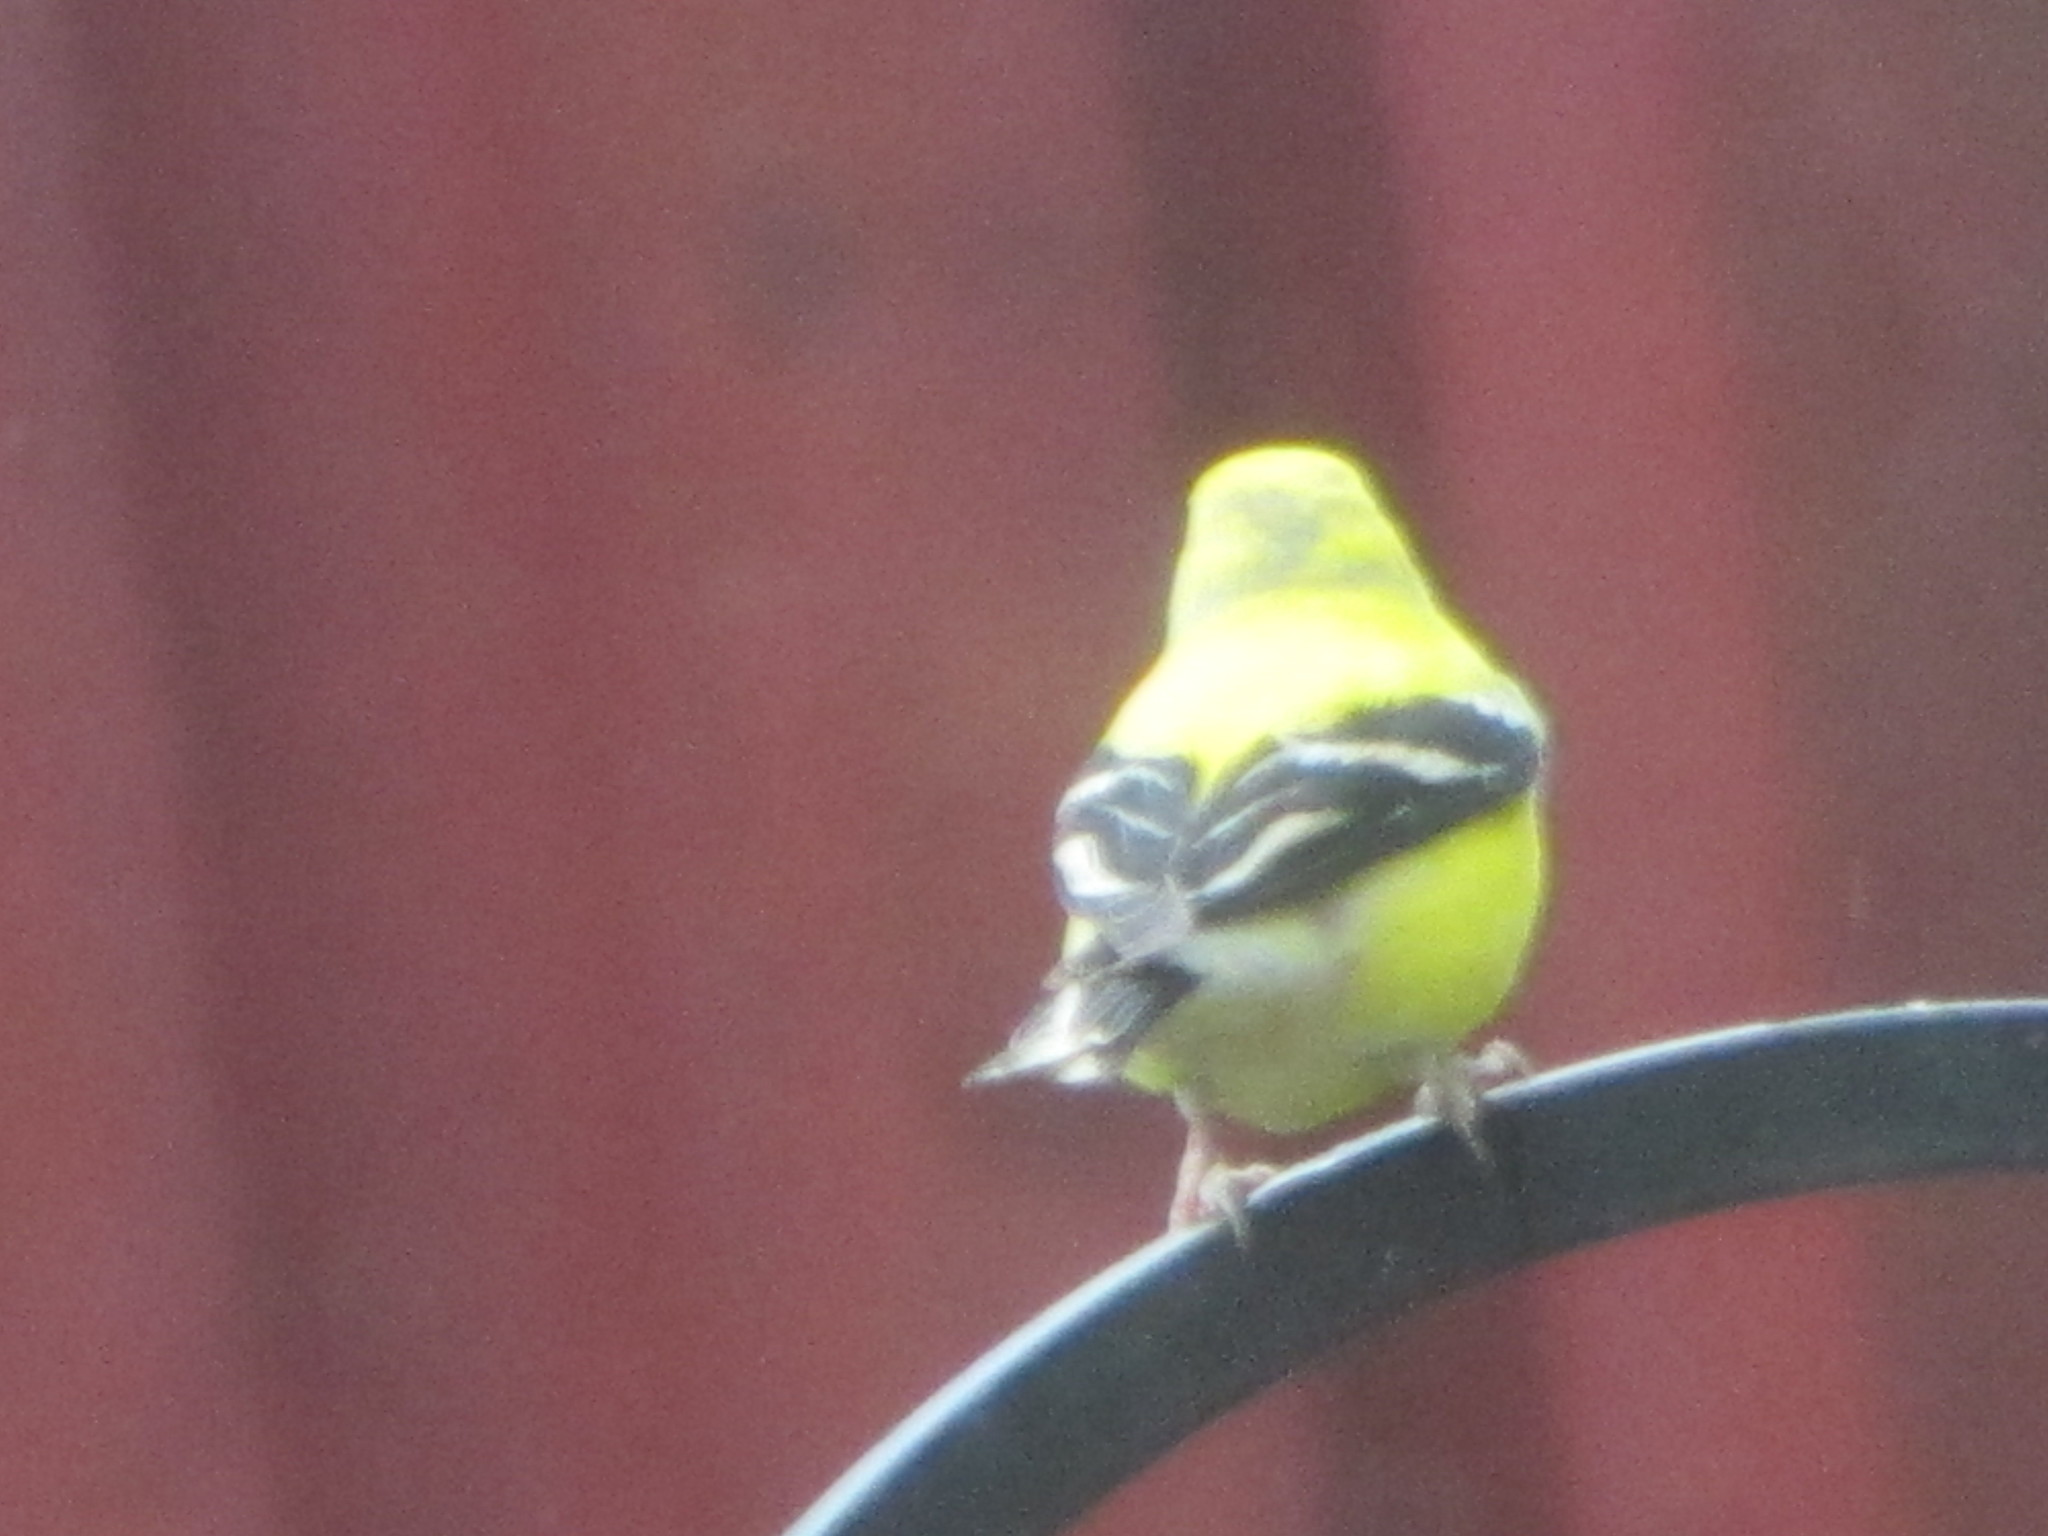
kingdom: Animalia
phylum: Chordata
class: Aves
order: Passeriformes
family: Fringillidae
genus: Spinus
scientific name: Spinus tristis
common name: American goldfinch
